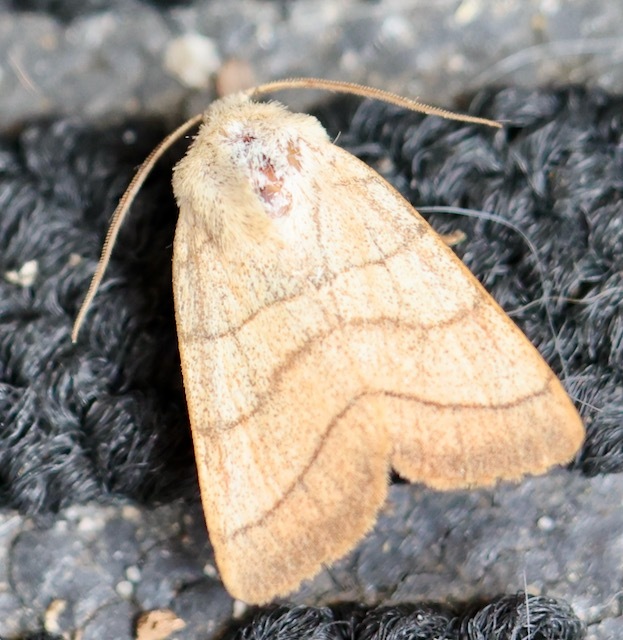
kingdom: Animalia
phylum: Arthropoda
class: Insecta
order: Lepidoptera
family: Noctuidae
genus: Charanyca
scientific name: Charanyca trigrammica
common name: Treble lines
